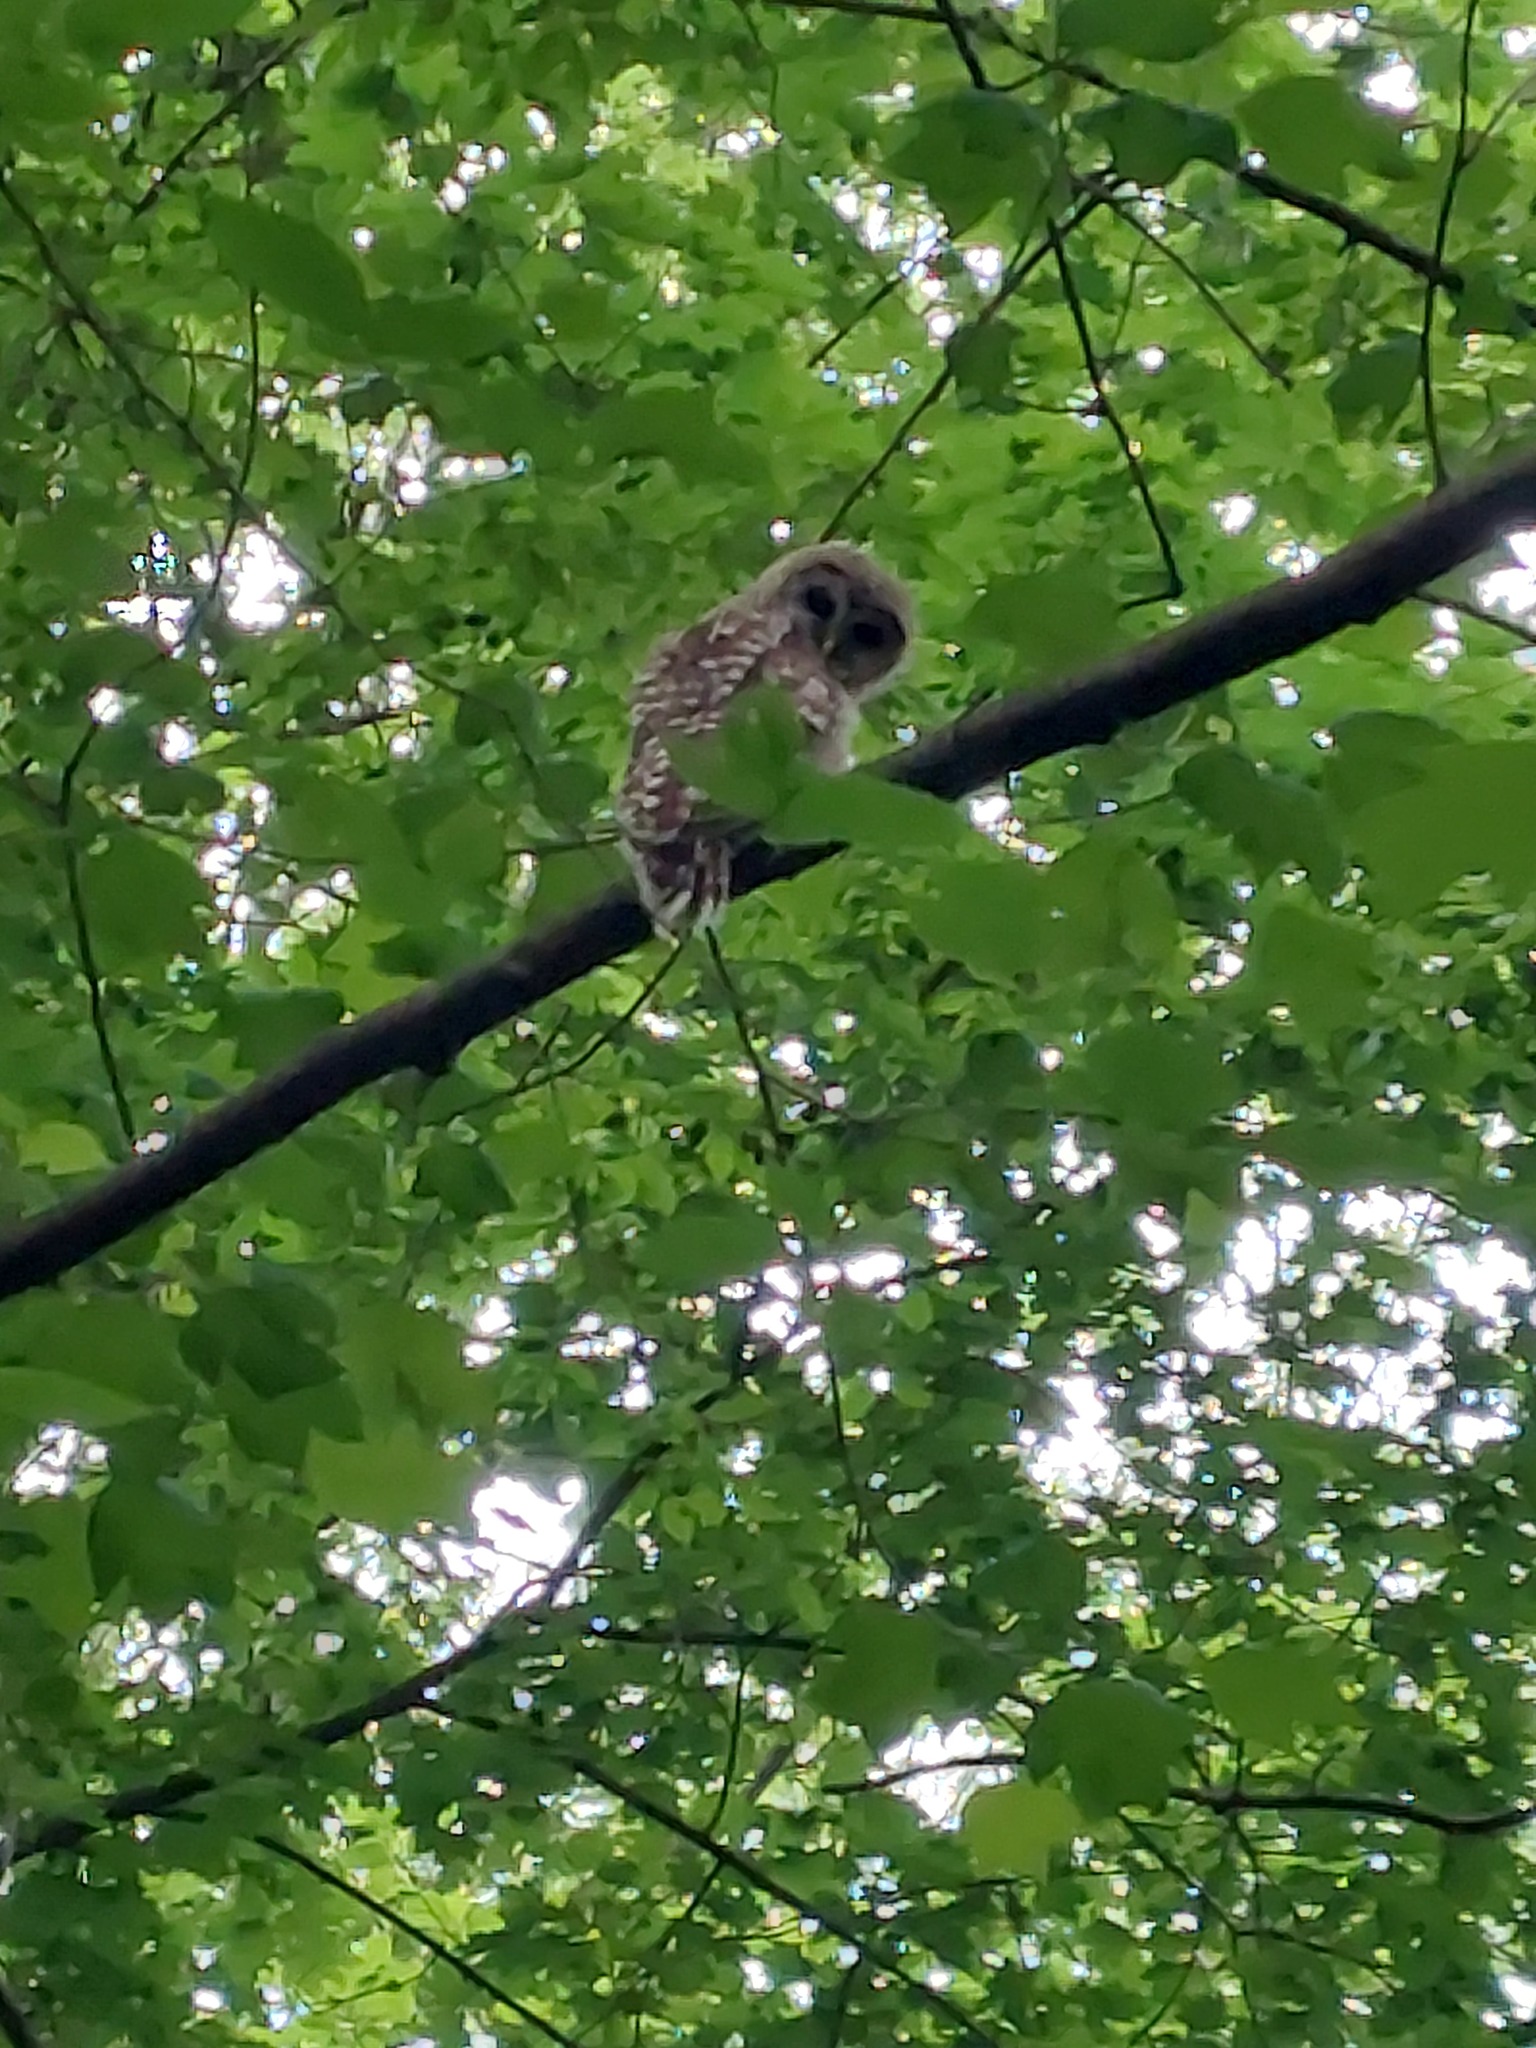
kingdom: Animalia
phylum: Chordata
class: Aves
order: Strigiformes
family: Strigidae
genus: Strix
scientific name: Strix varia
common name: Barred owl
